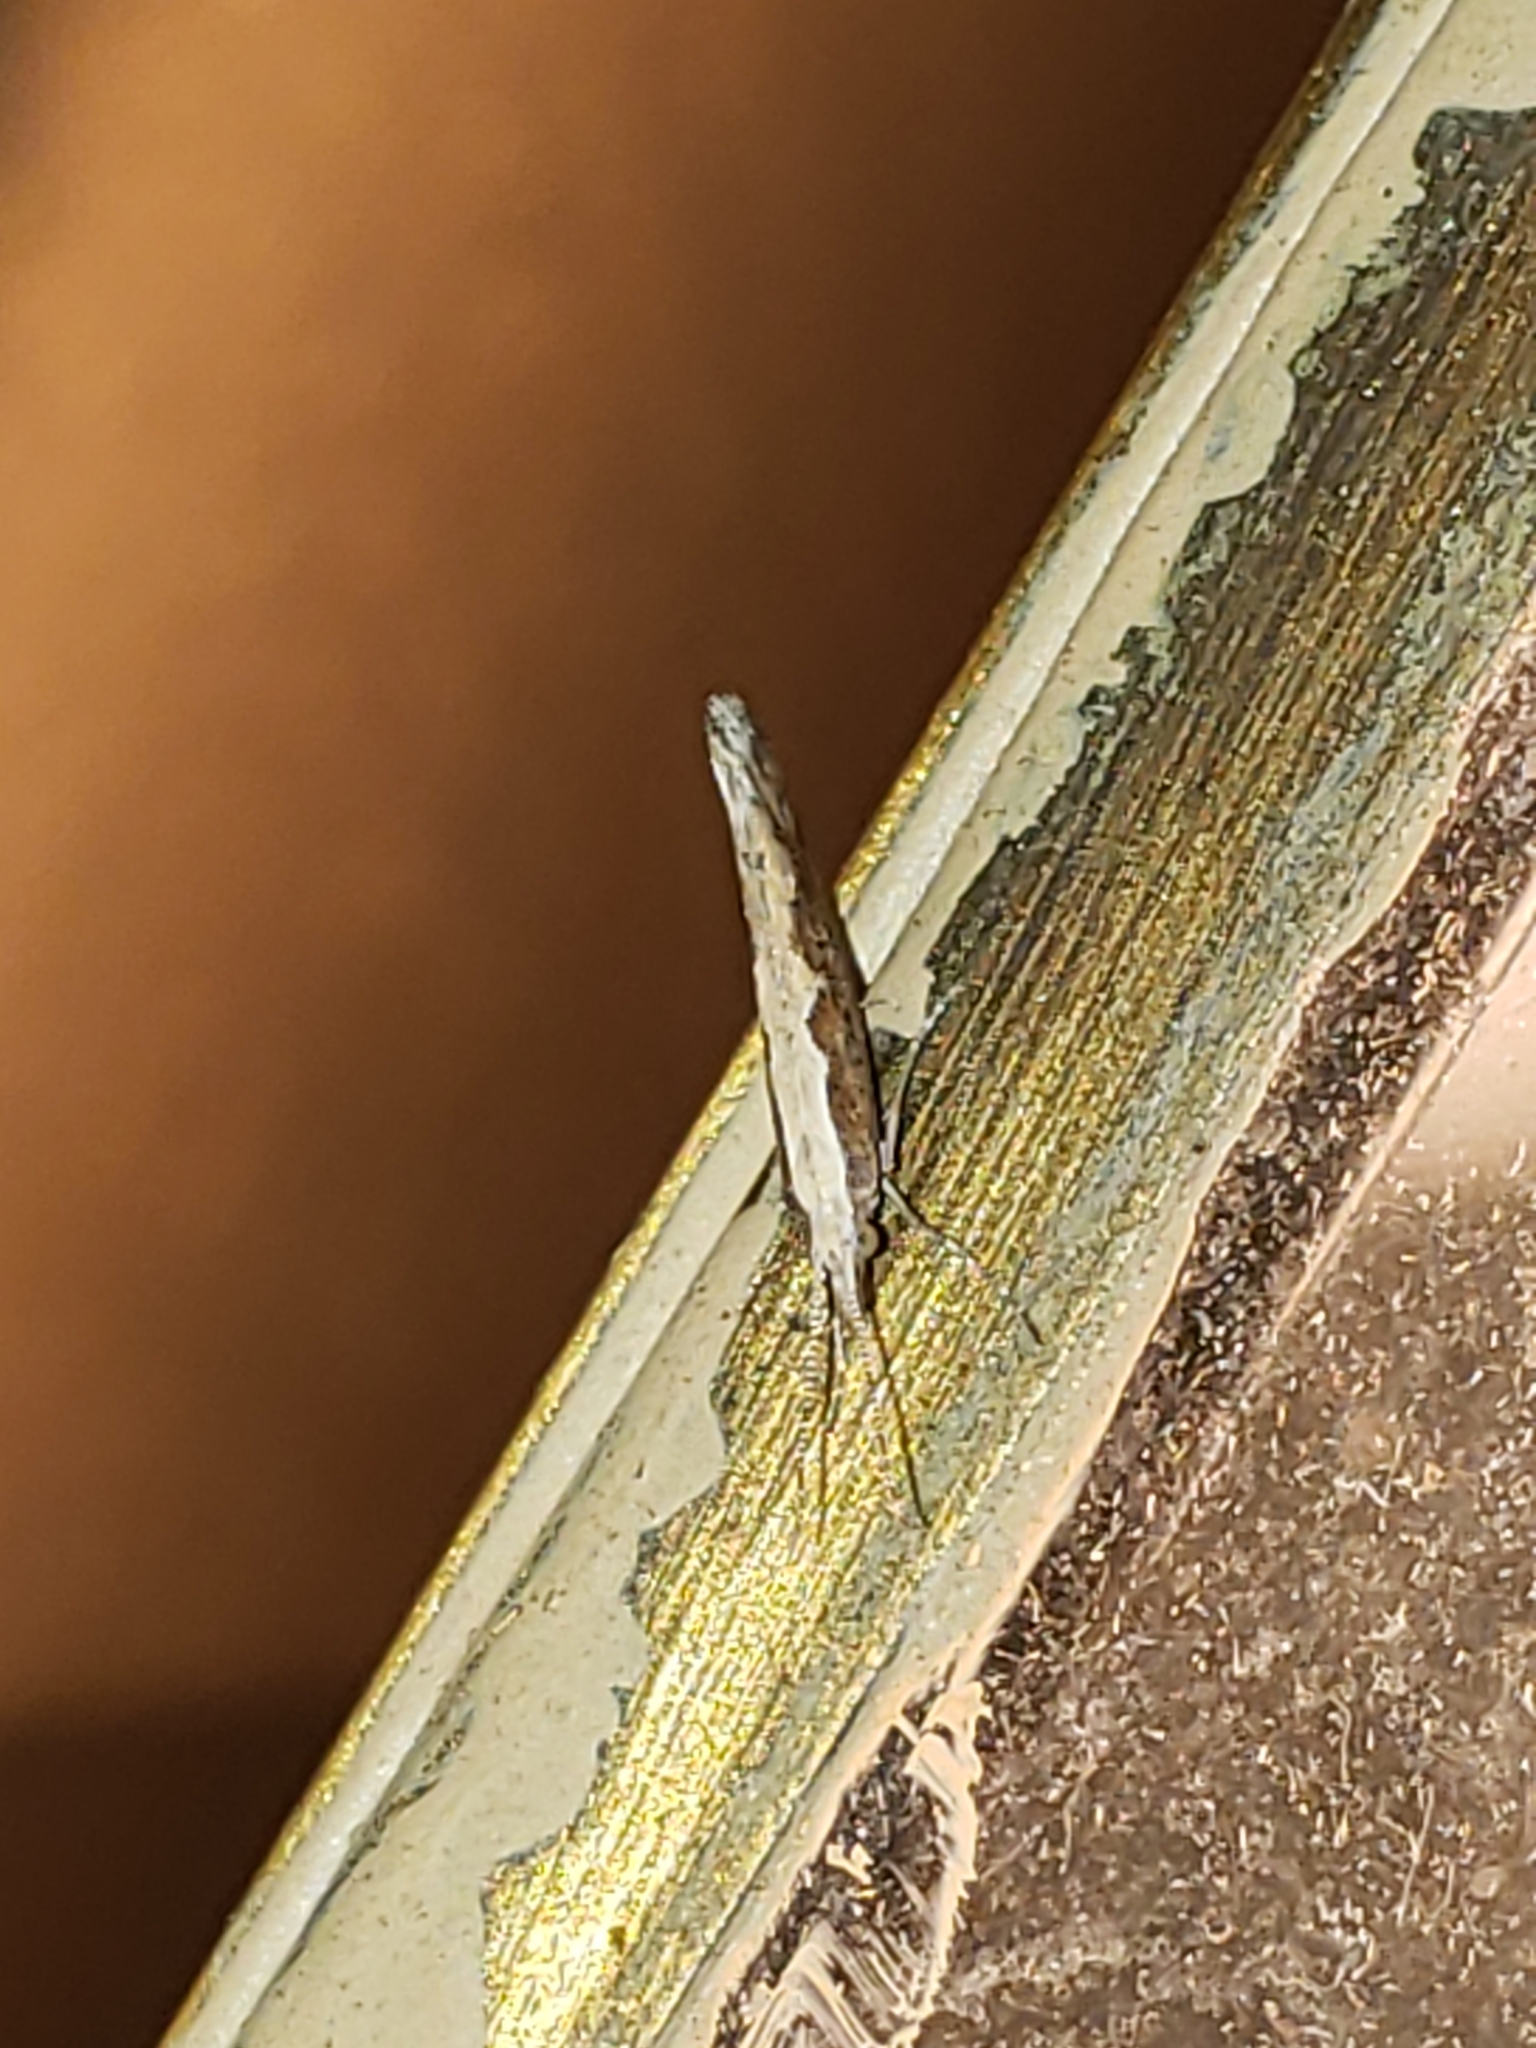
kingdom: Animalia
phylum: Arthropoda
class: Insecta
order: Lepidoptera
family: Plutellidae
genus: Plutella
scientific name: Plutella xylostella
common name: Diamond-back moth
